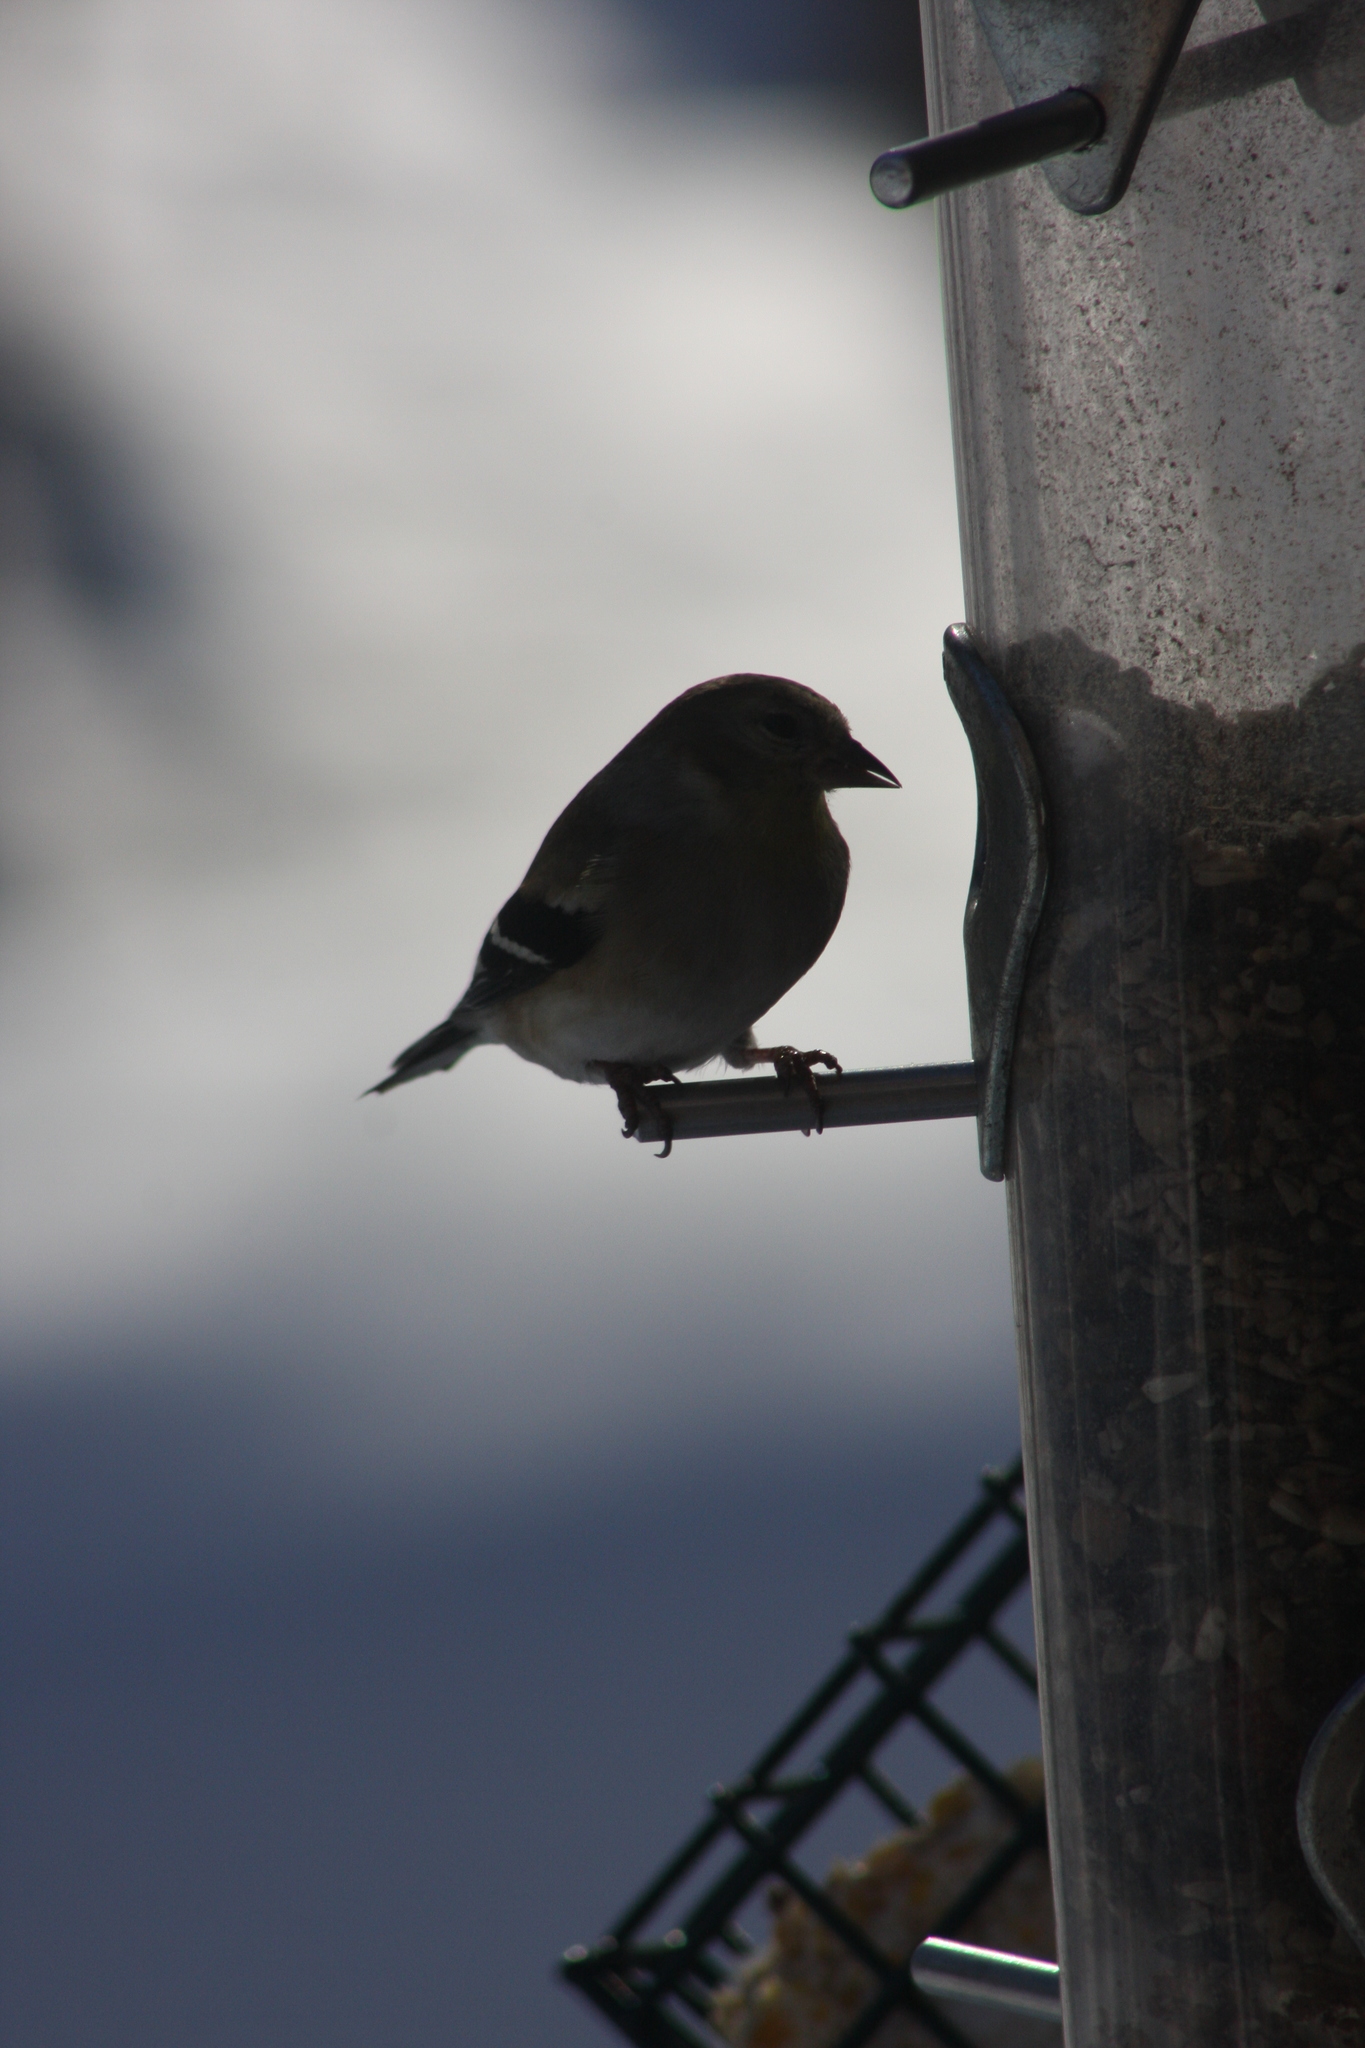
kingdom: Animalia
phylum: Chordata
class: Aves
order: Passeriformes
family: Fringillidae
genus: Spinus
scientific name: Spinus tristis
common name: American goldfinch
